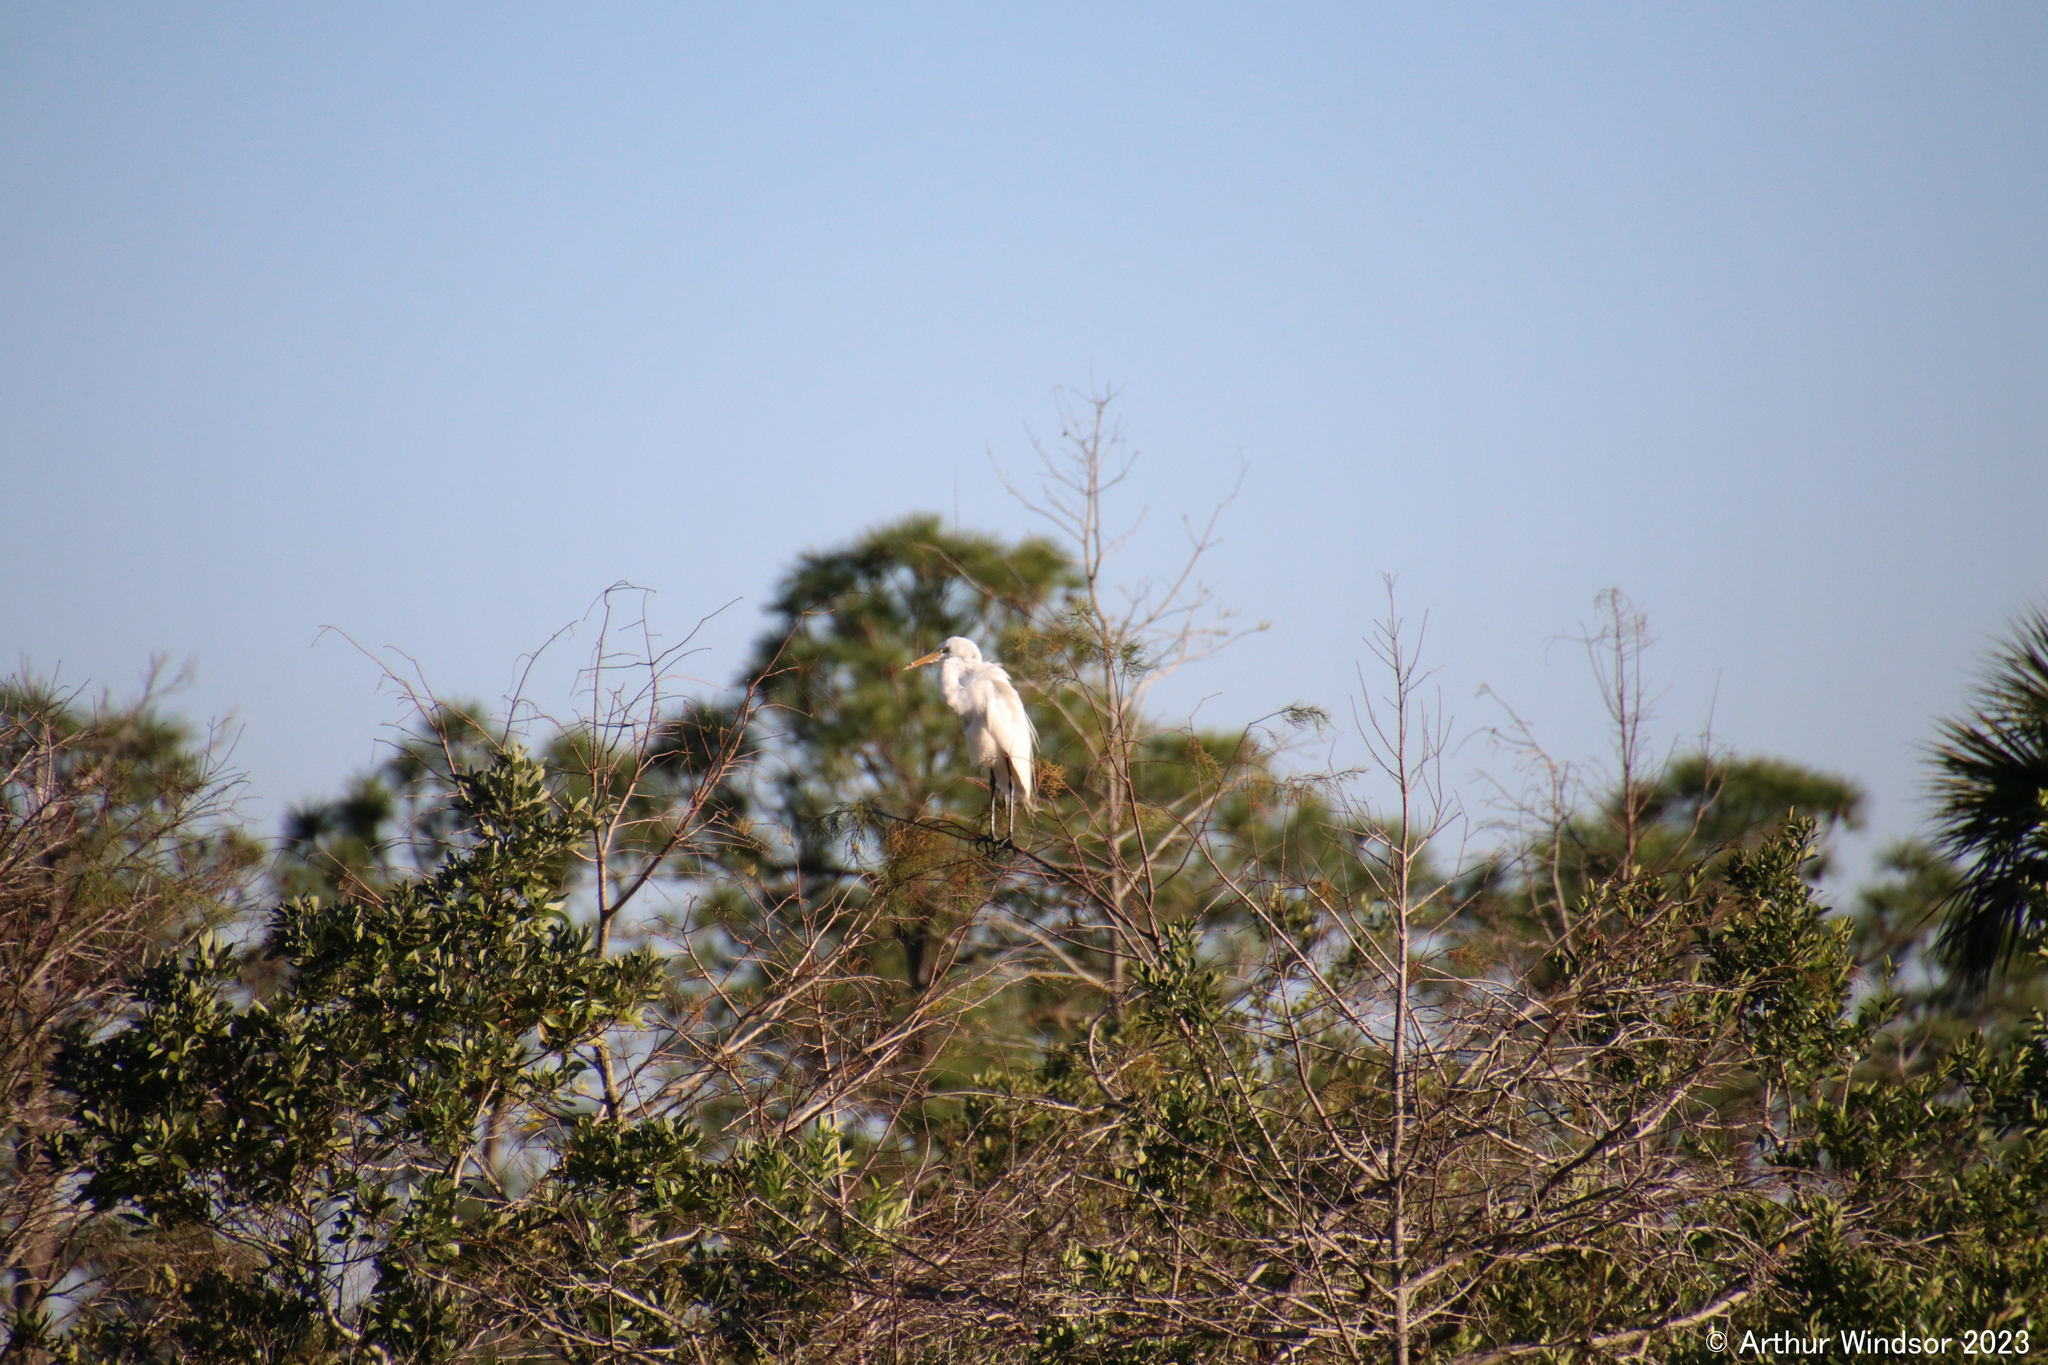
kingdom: Animalia
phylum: Chordata
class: Aves
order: Pelecaniformes
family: Ardeidae
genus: Ardea
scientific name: Ardea alba
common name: Great egret
